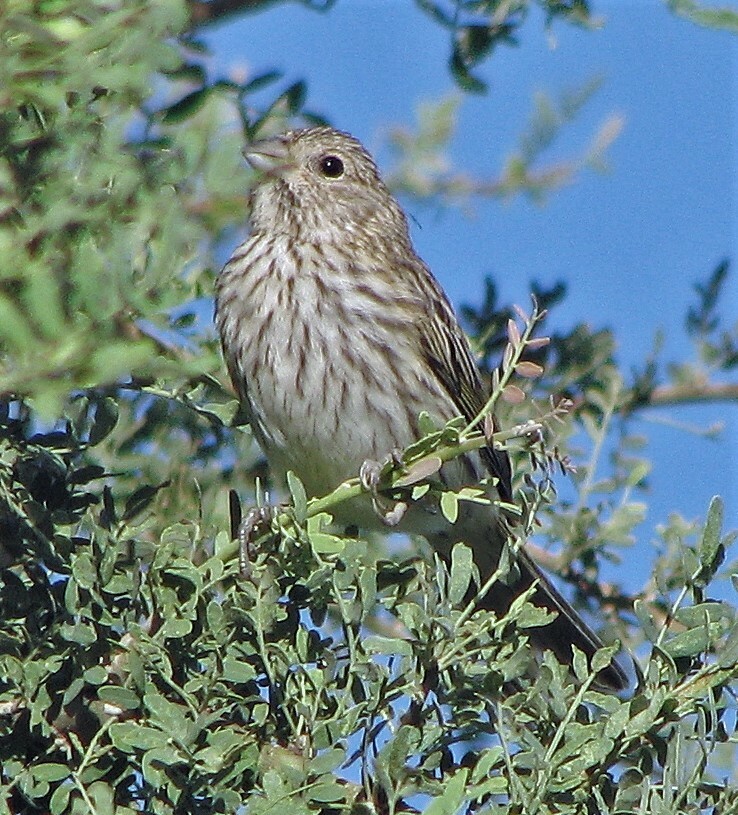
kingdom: Animalia
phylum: Chordata
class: Aves
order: Passeriformes
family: Thraupidae
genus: Sicalis
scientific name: Sicalis flaveola
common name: Saffron finch
